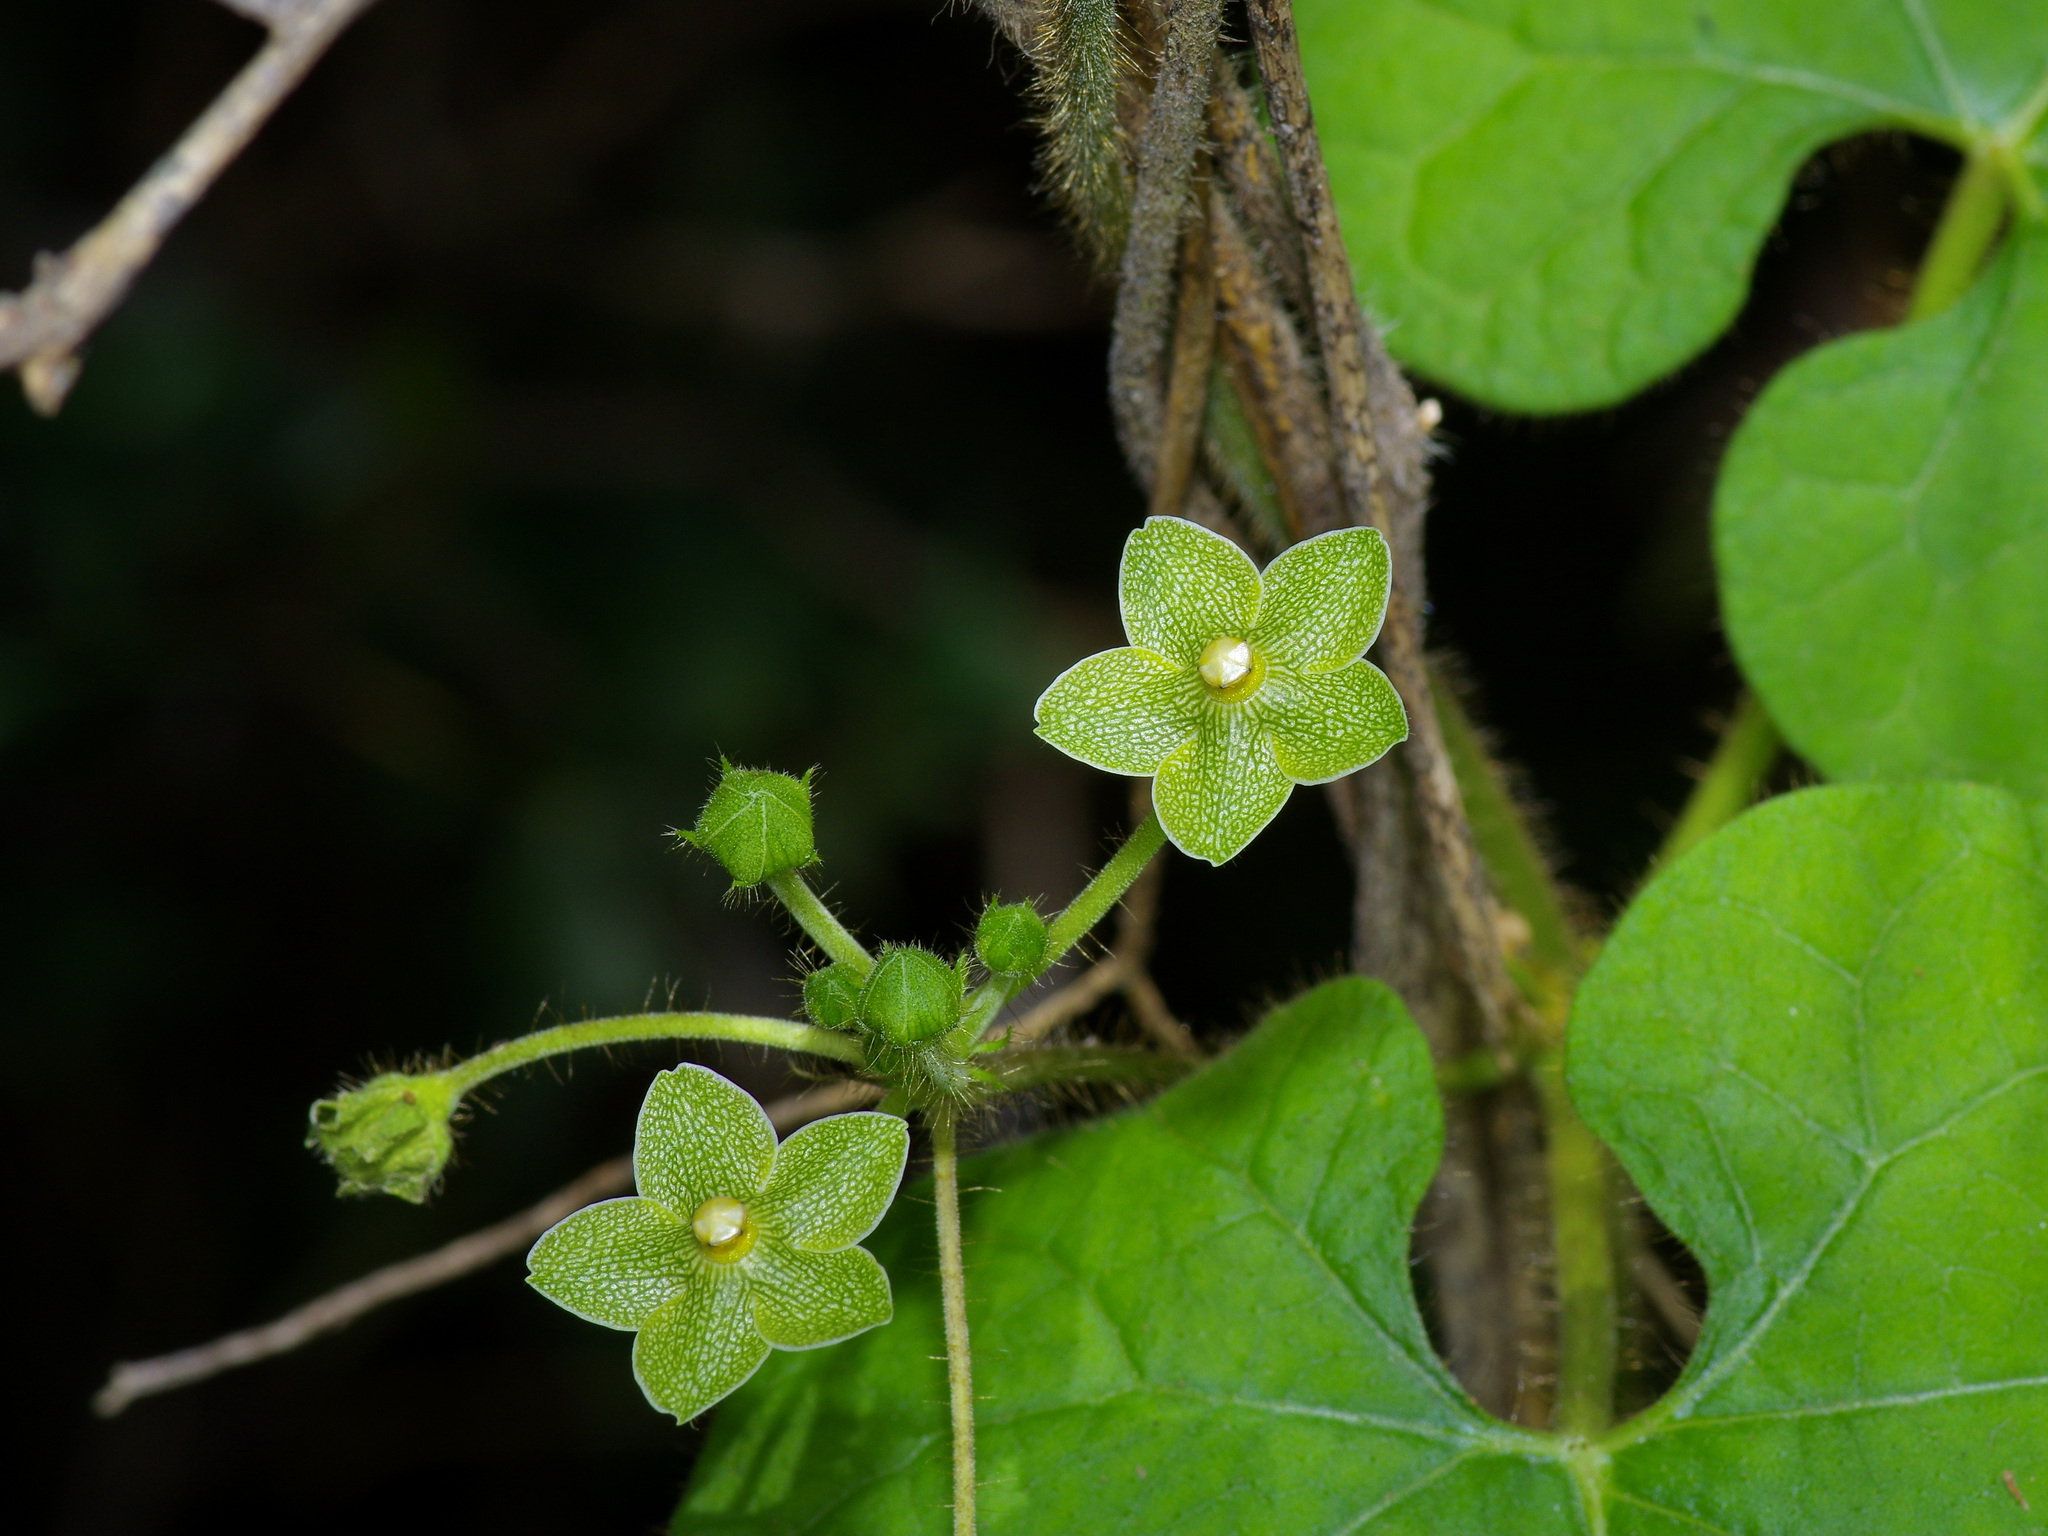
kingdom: Plantae
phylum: Tracheophyta
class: Magnoliopsida
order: Gentianales
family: Apocynaceae
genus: Dictyanthus
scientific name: Dictyanthus reticulatus
